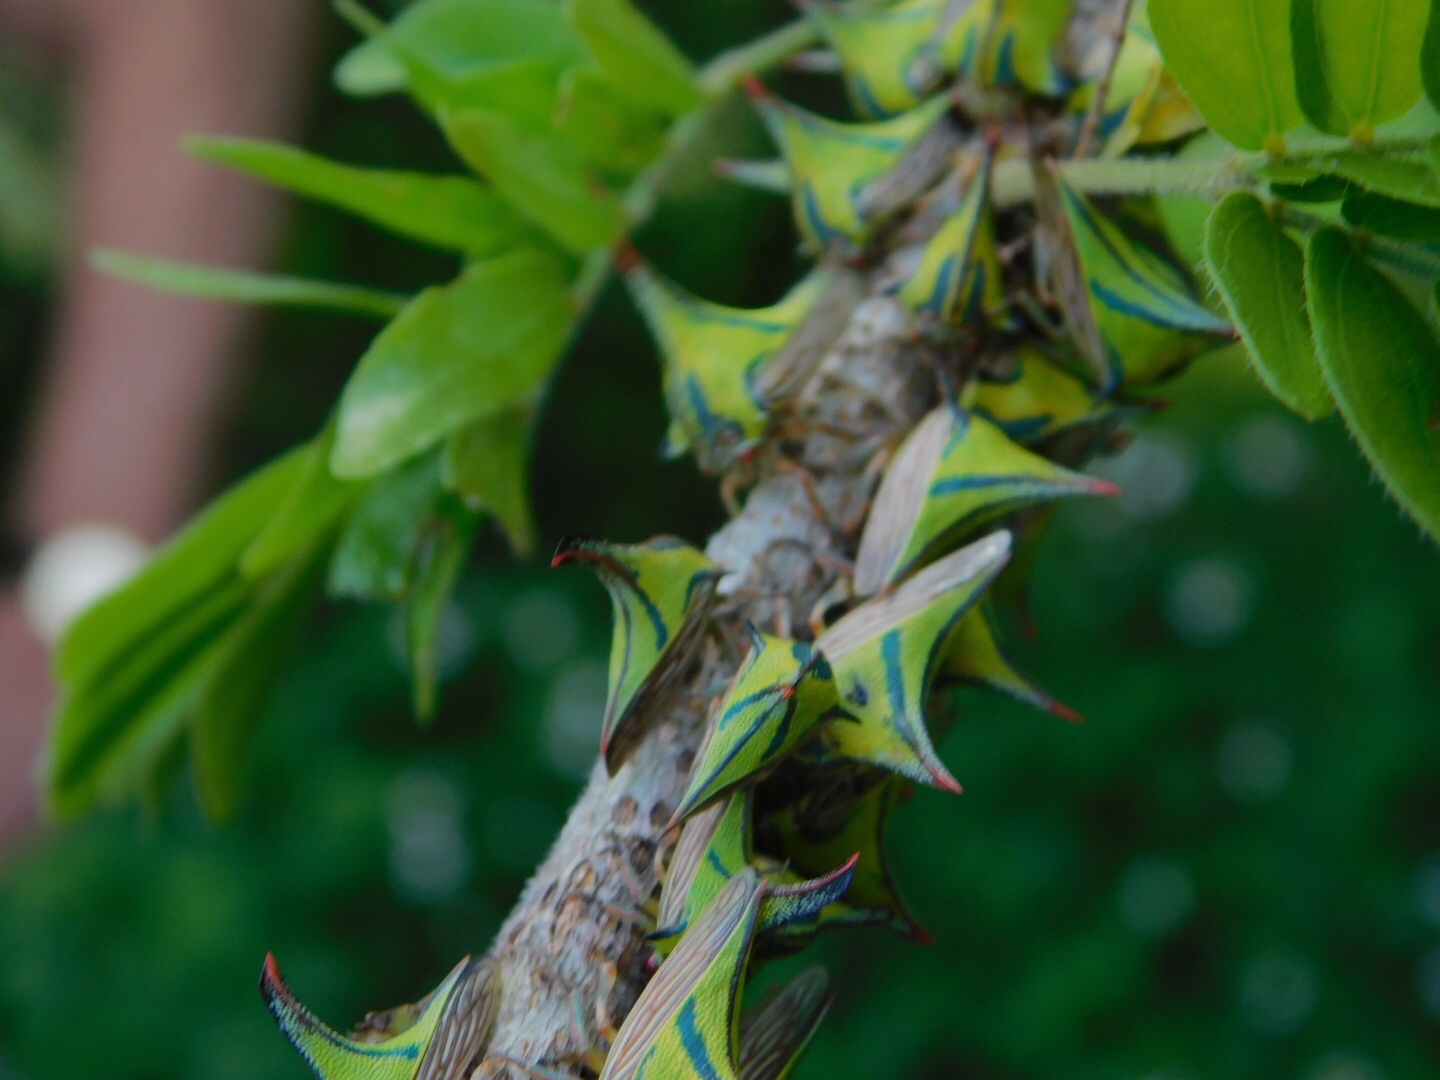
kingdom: Animalia
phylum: Arthropoda
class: Insecta
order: Hemiptera
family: Membracidae
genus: Umbonia
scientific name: Umbonia crassicornis
